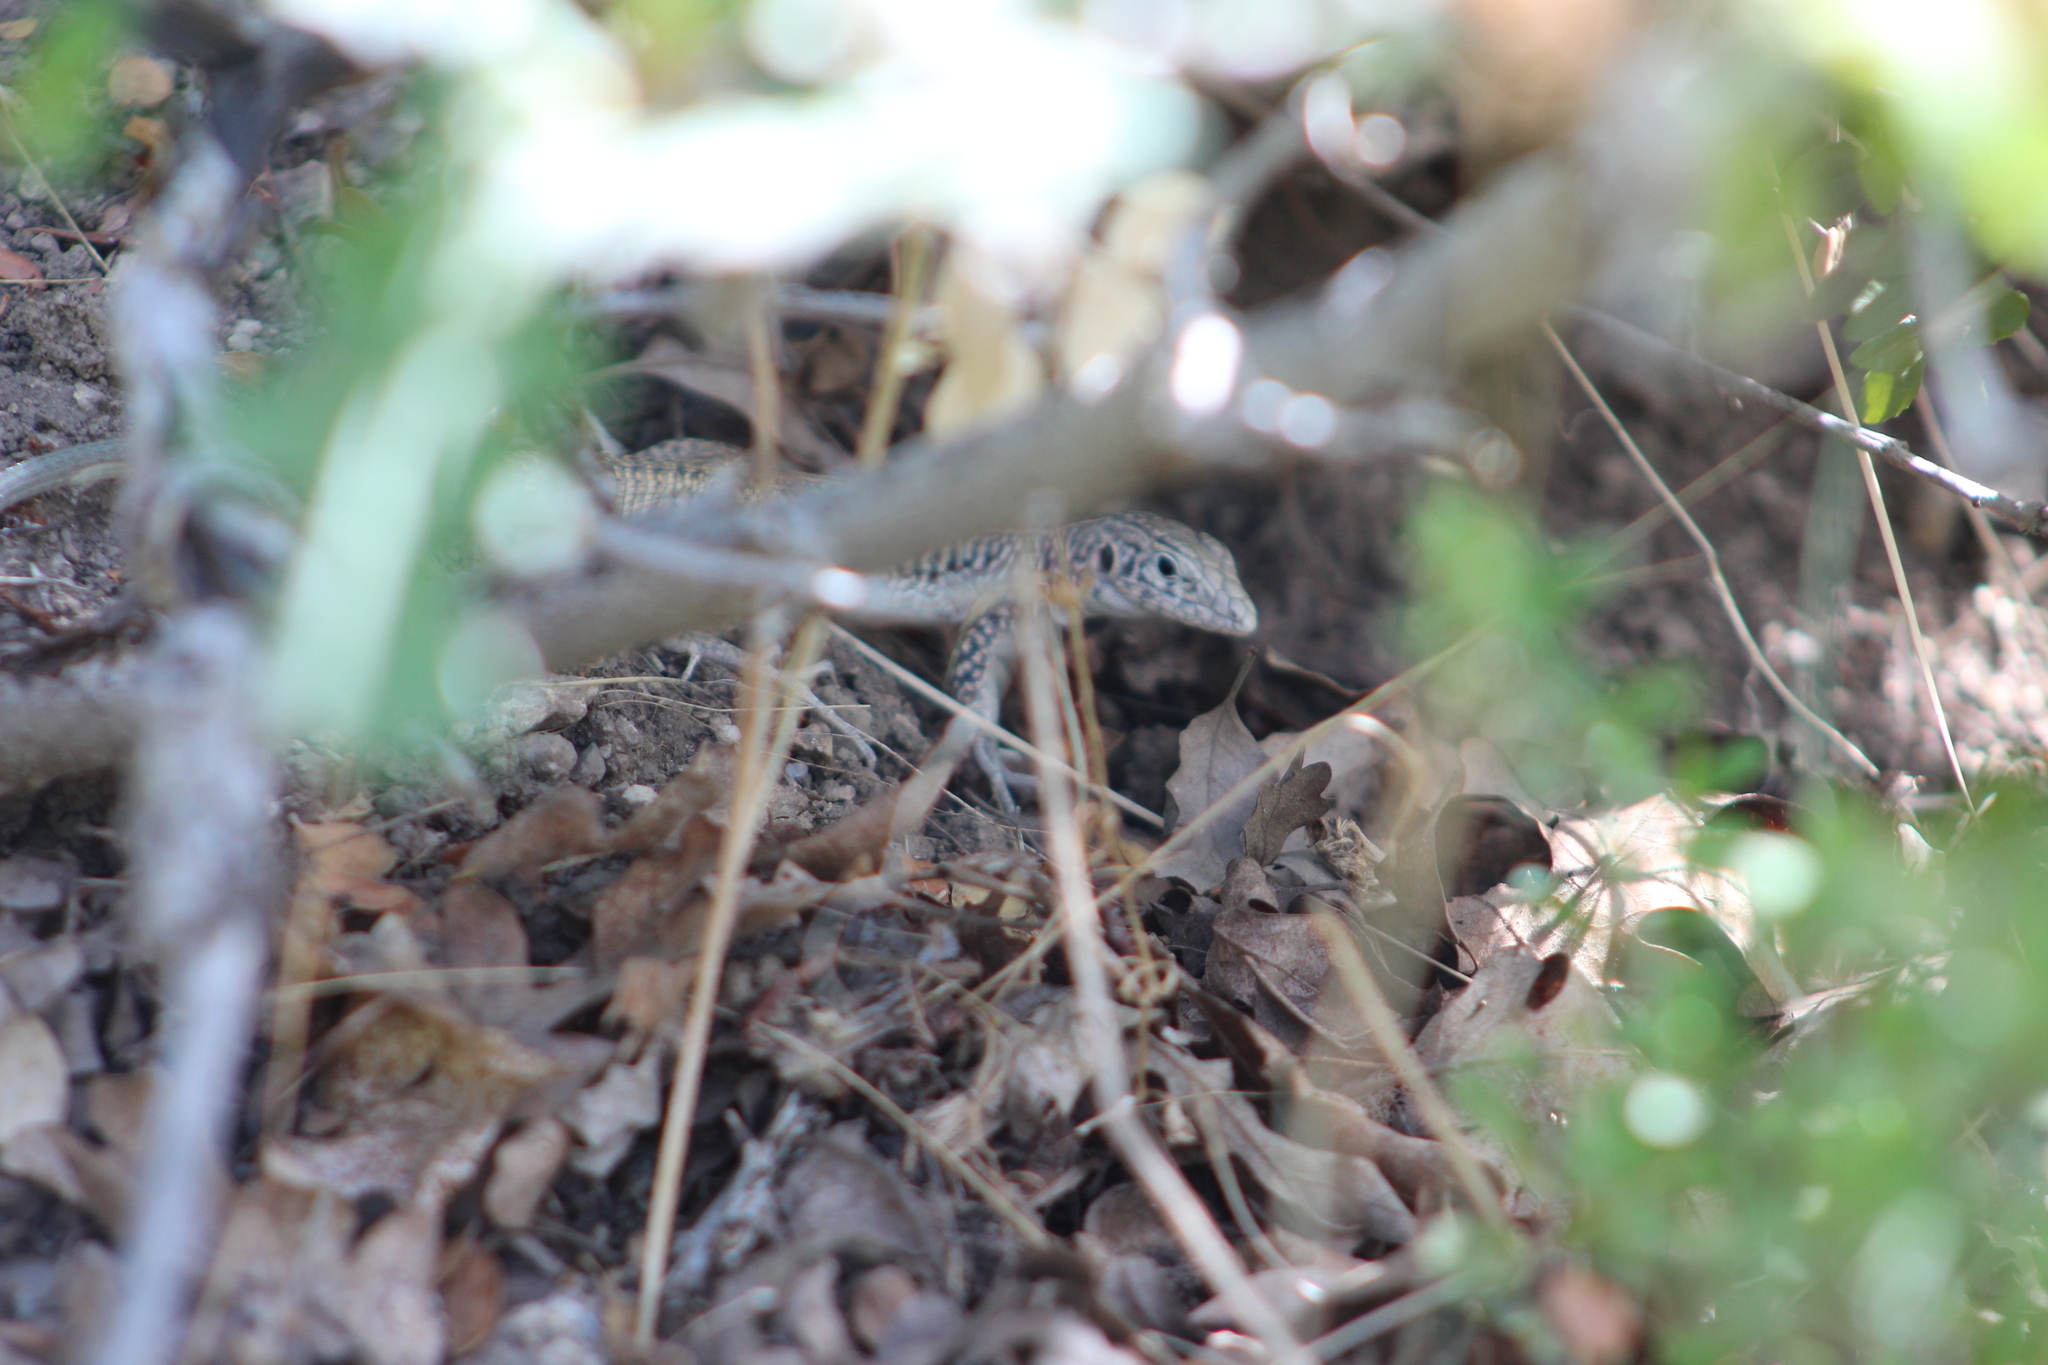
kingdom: Animalia
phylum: Chordata
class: Squamata
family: Teiidae
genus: Aspidoscelis
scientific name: Aspidoscelis tigris
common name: Tiger whiptail
